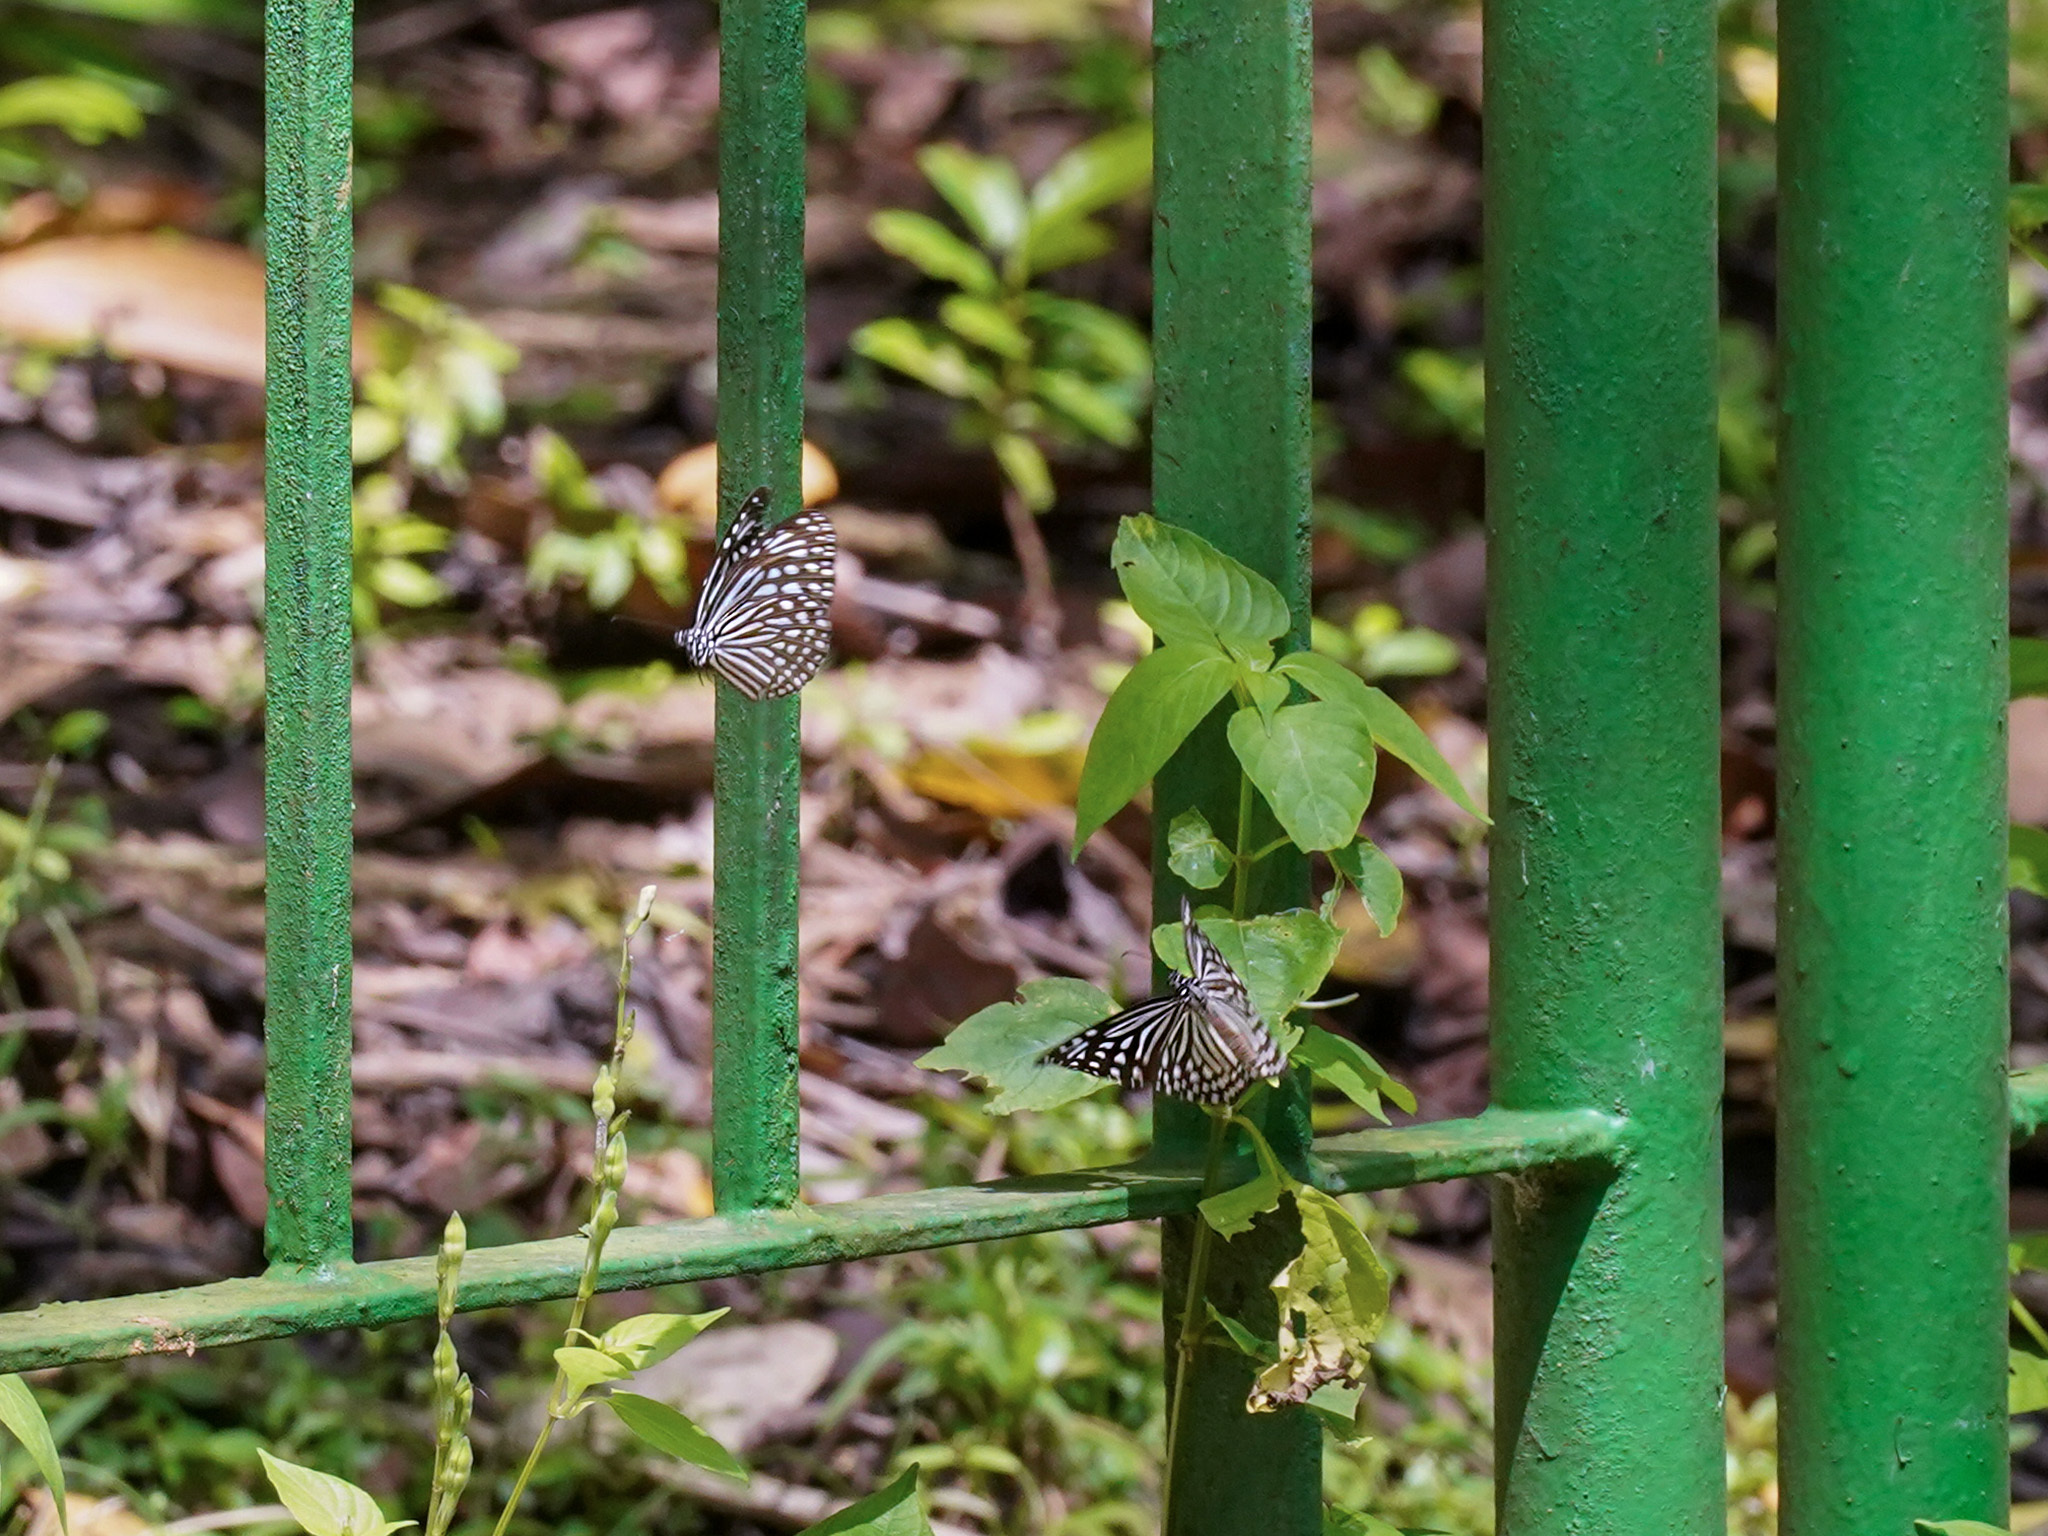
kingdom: Animalia
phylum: Arthropoda
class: Insecta
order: Lepidoptera
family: Nymphalidae
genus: Parantica
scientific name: Parantica agleoides
